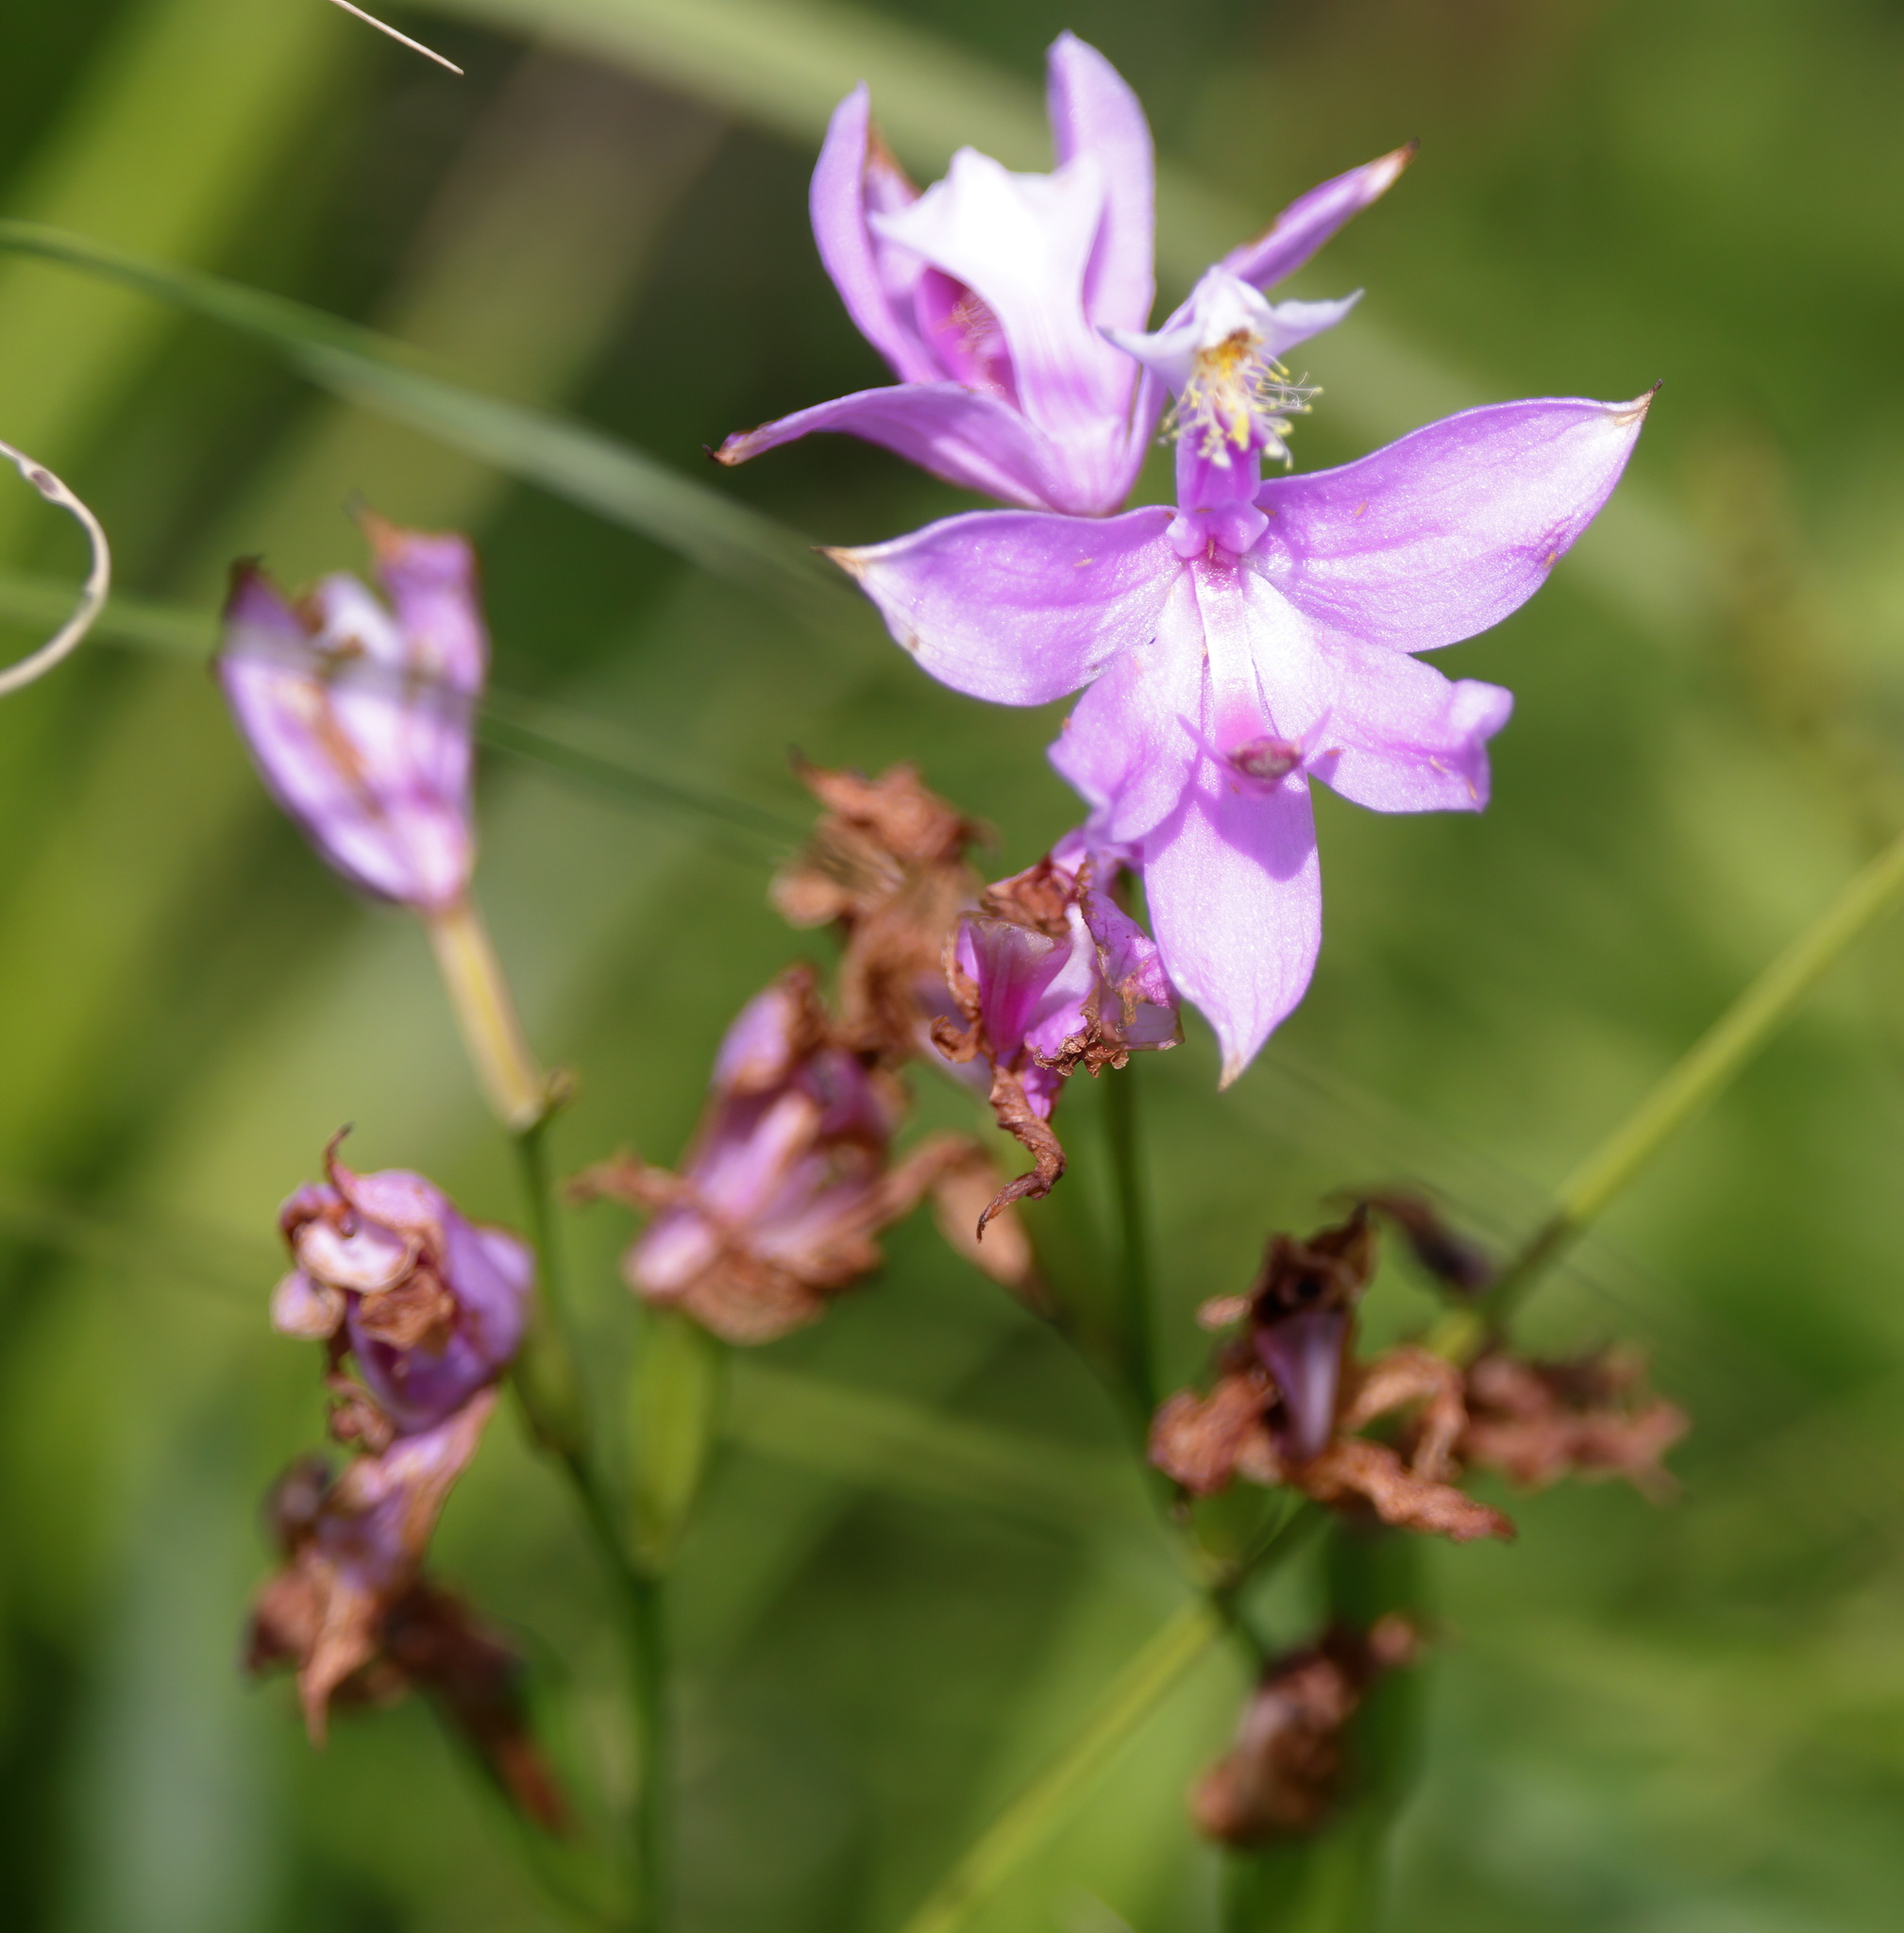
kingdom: Plantae
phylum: Tracheophyta
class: Liliopsida
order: Asparagales
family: Orchidaceae
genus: Calopogon
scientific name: Calopogon tuberosus
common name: Grass-pink
